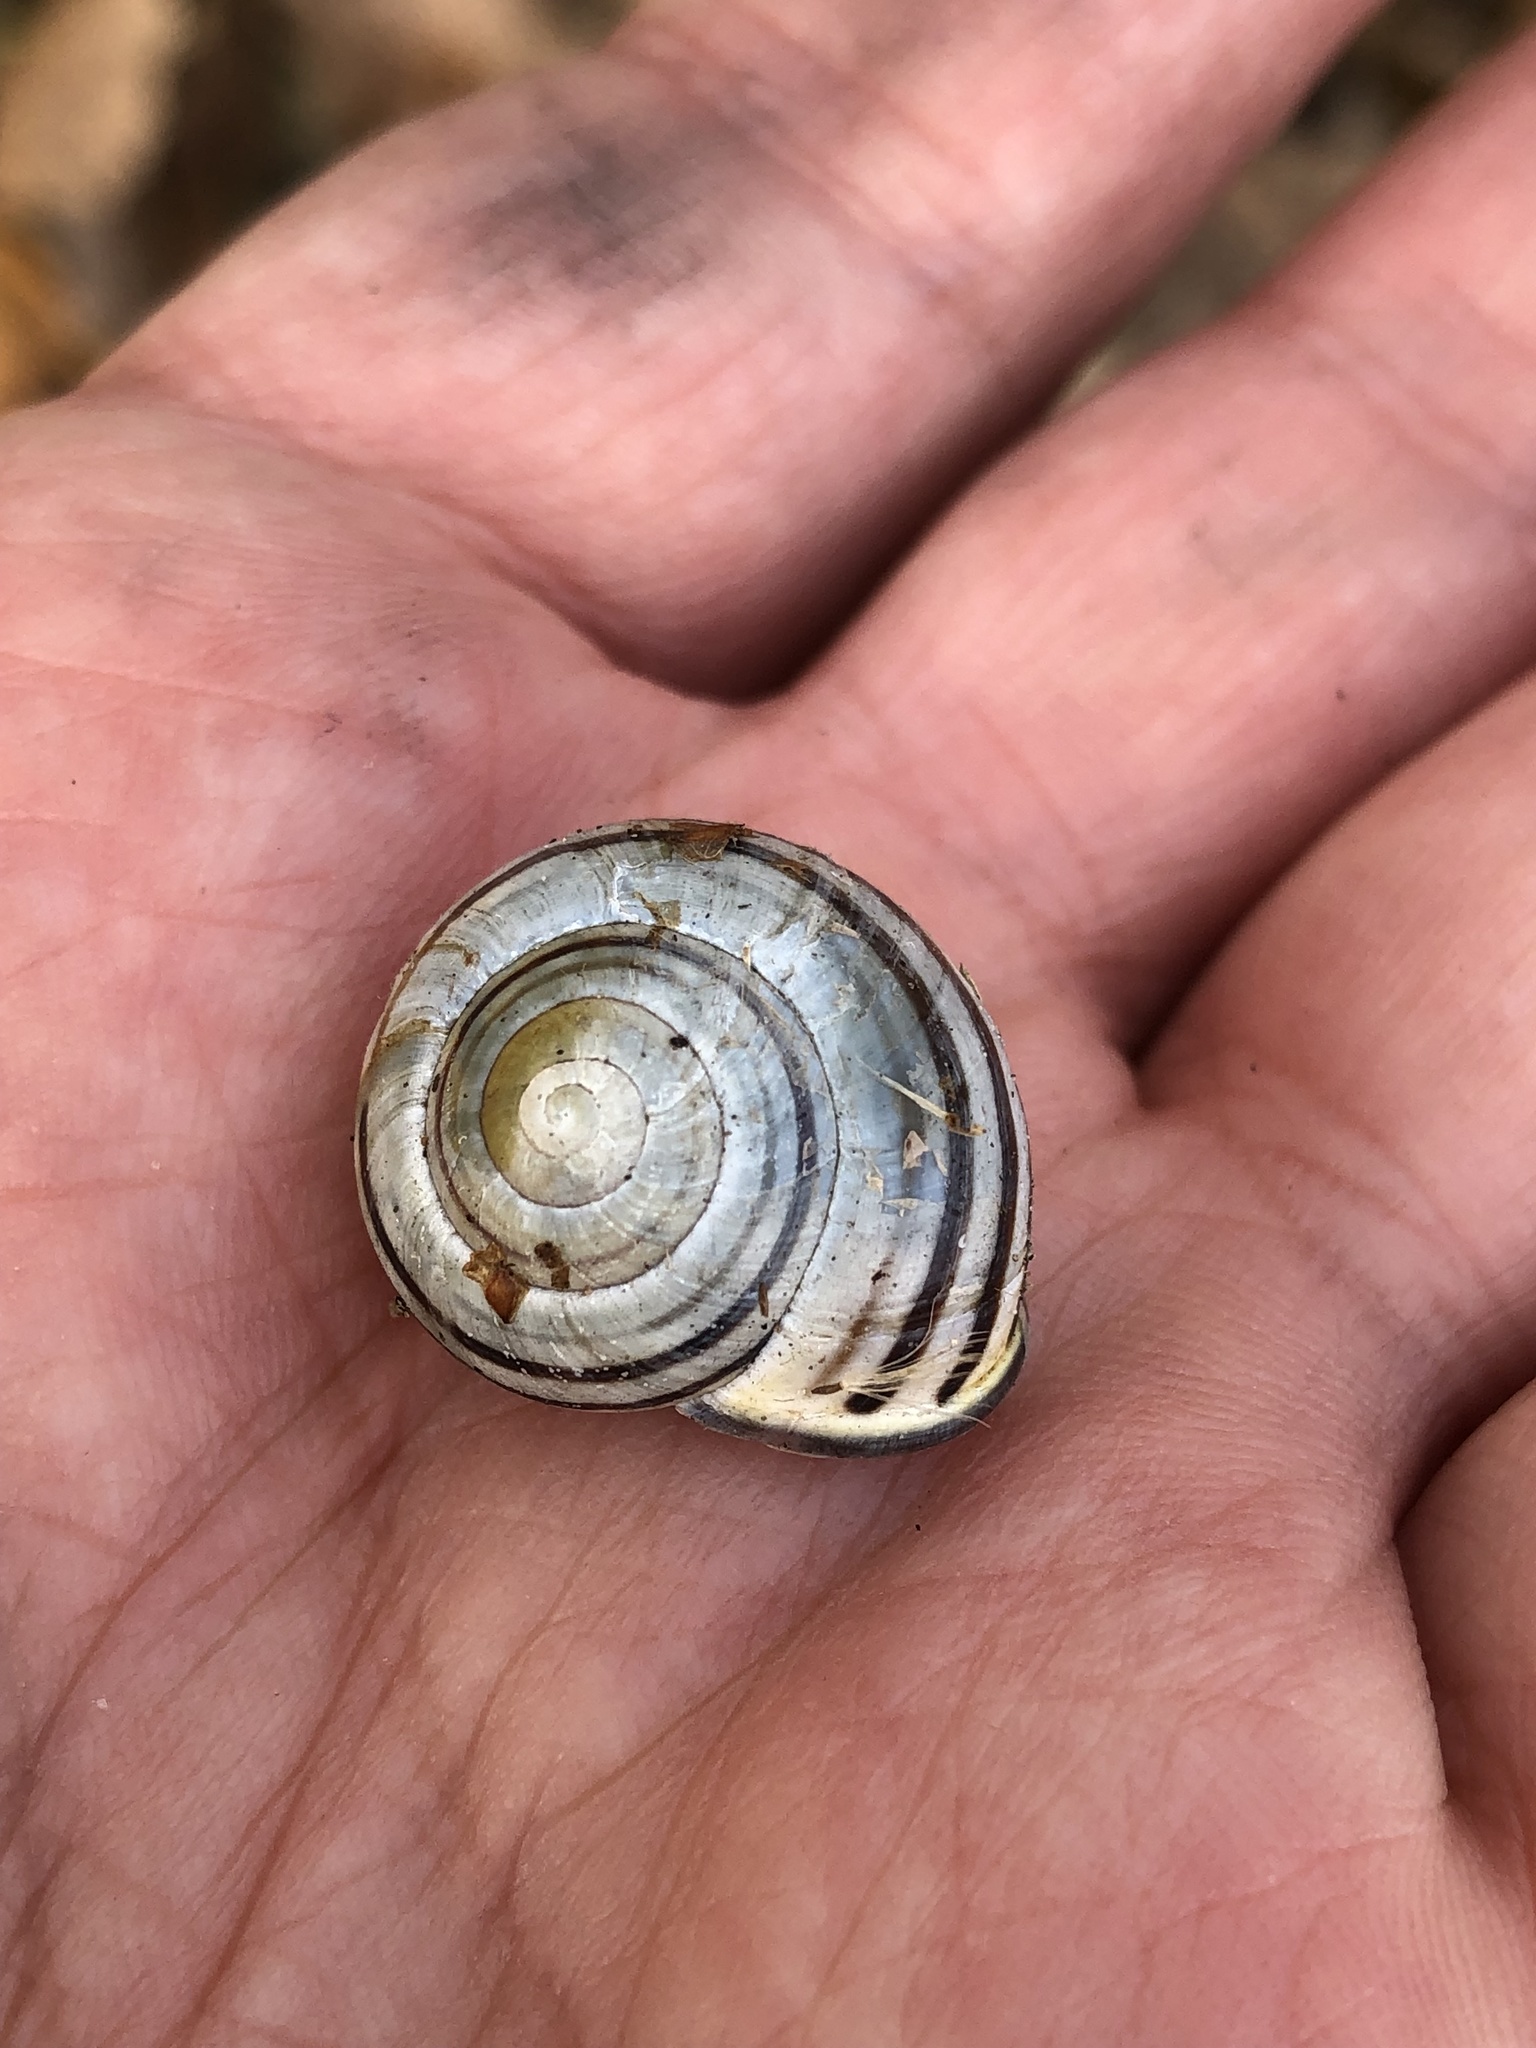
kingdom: Animalia
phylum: Mollusca
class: Gastropoda
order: Stylommatophora
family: Helicidae
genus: Cepaea
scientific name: Cepaea nemoralis
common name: Grovesnail
